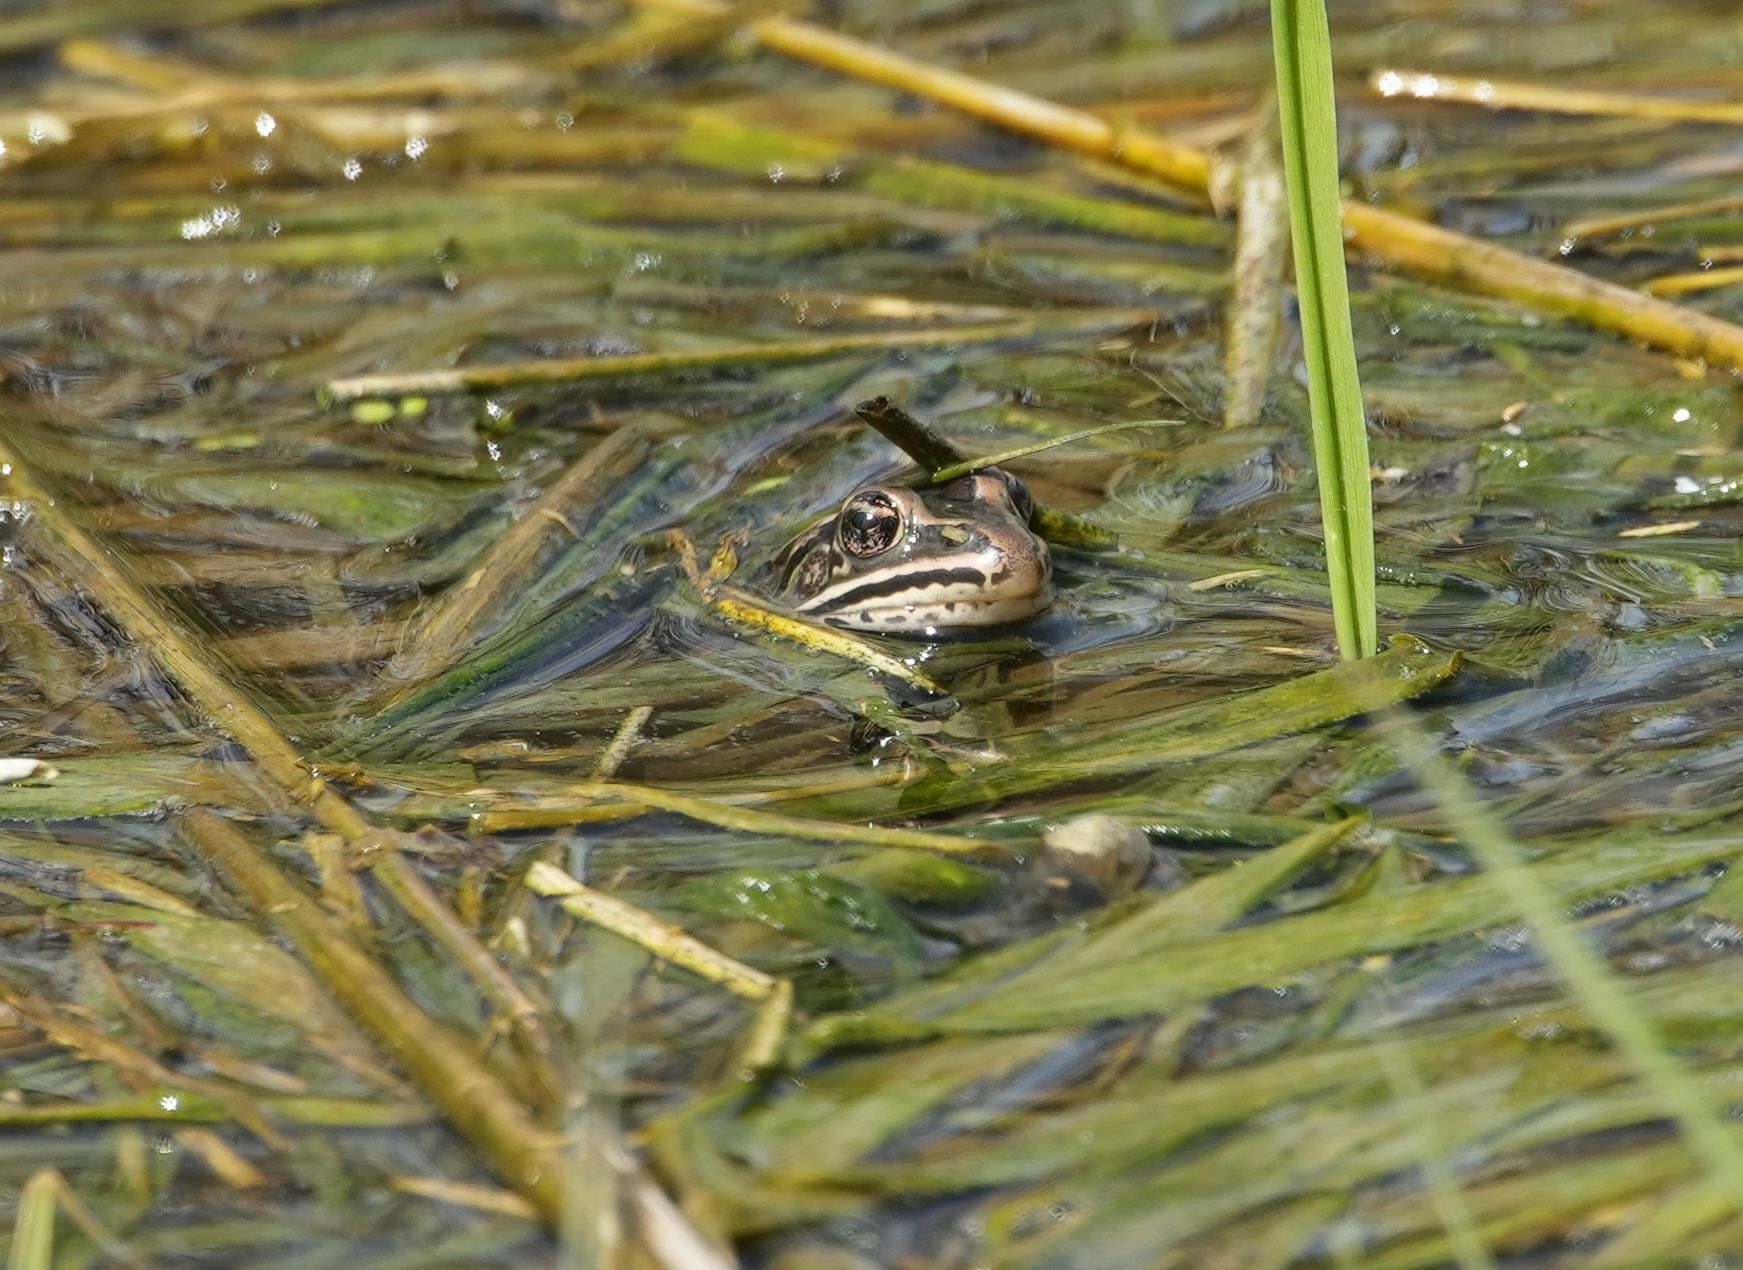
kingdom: Animalia
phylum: Chordata
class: Amphibia
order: Anura
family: Ranidae
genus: Lithobates
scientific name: Lithobates pipiens
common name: Northern leopard frog
